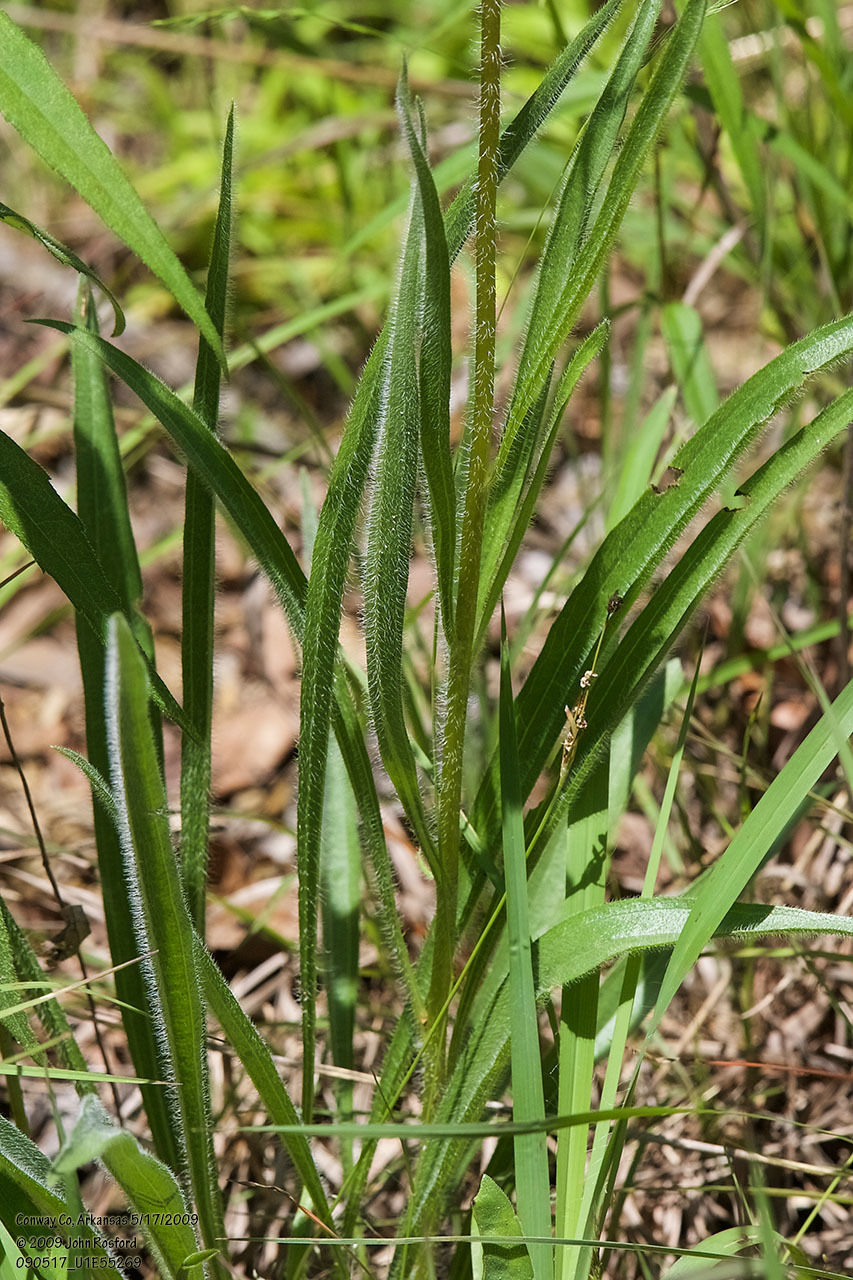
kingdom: Plantae
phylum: Tracheophyta
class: Magnoliopsida
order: Asterales
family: Asteraceae
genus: Echinacea
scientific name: Echinacea pallida
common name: Pale echinacea
